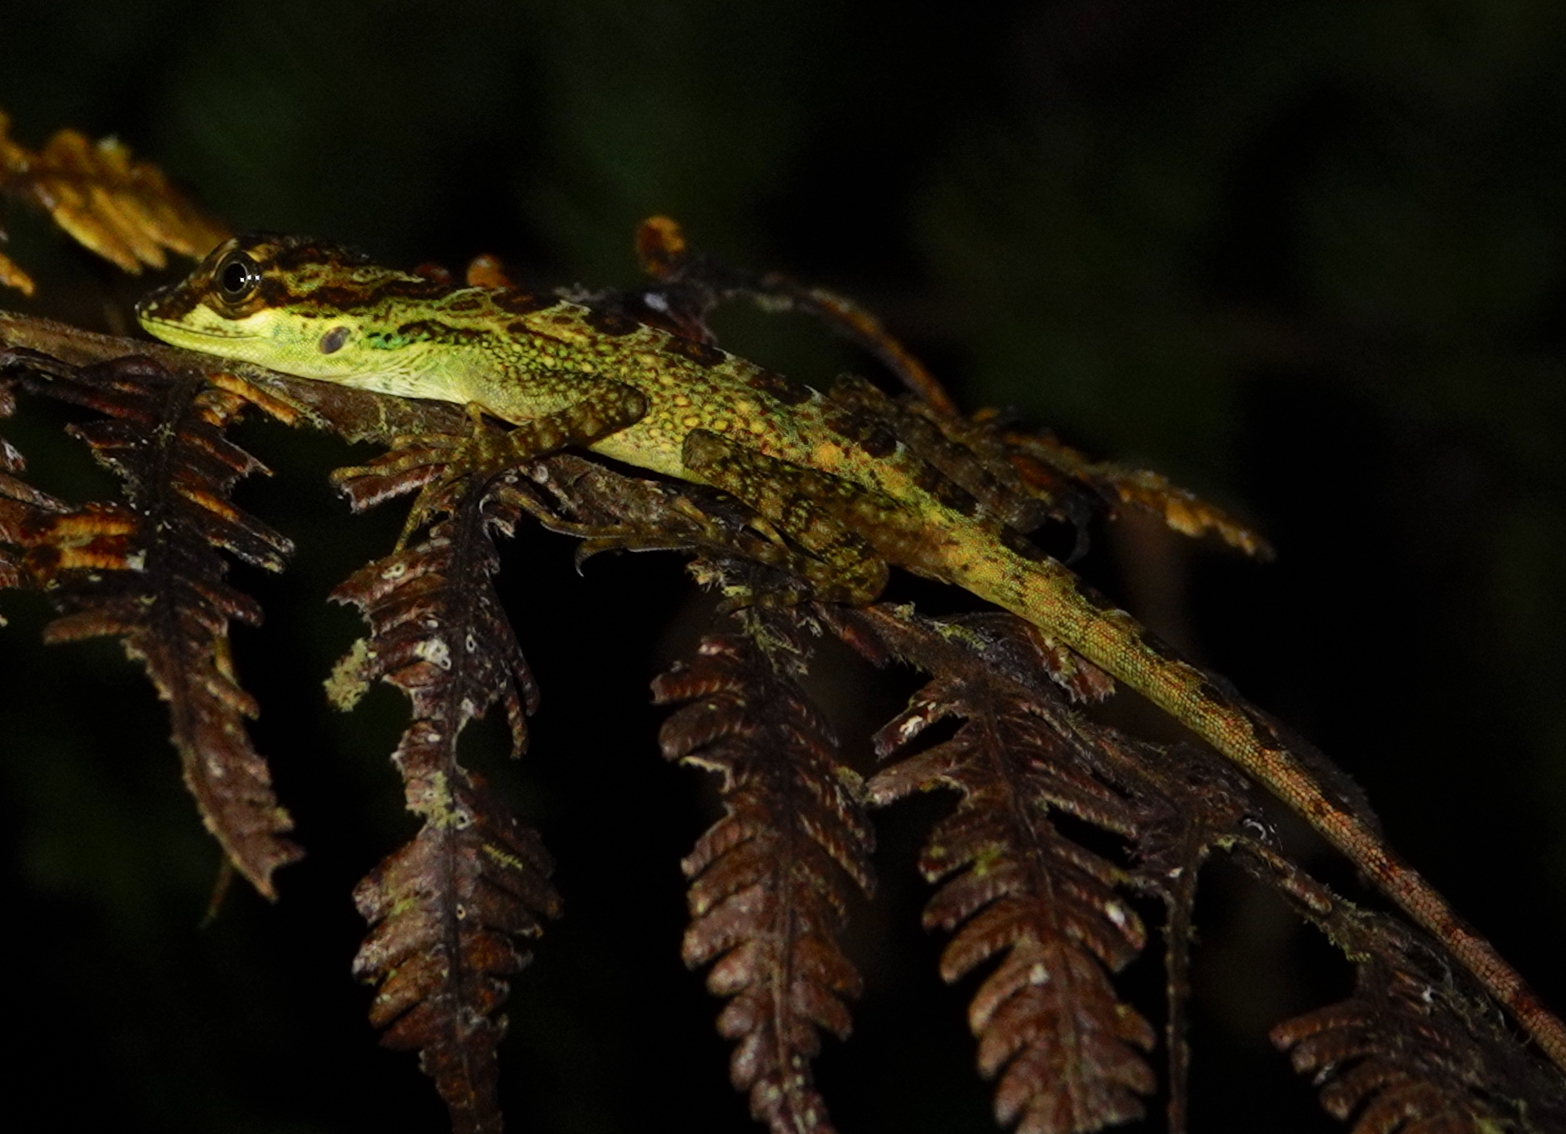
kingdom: Animalia
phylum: Chordata
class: Squamata
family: Dactyloidae
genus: Anolis
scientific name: Anolis dracula
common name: Dracula anole
